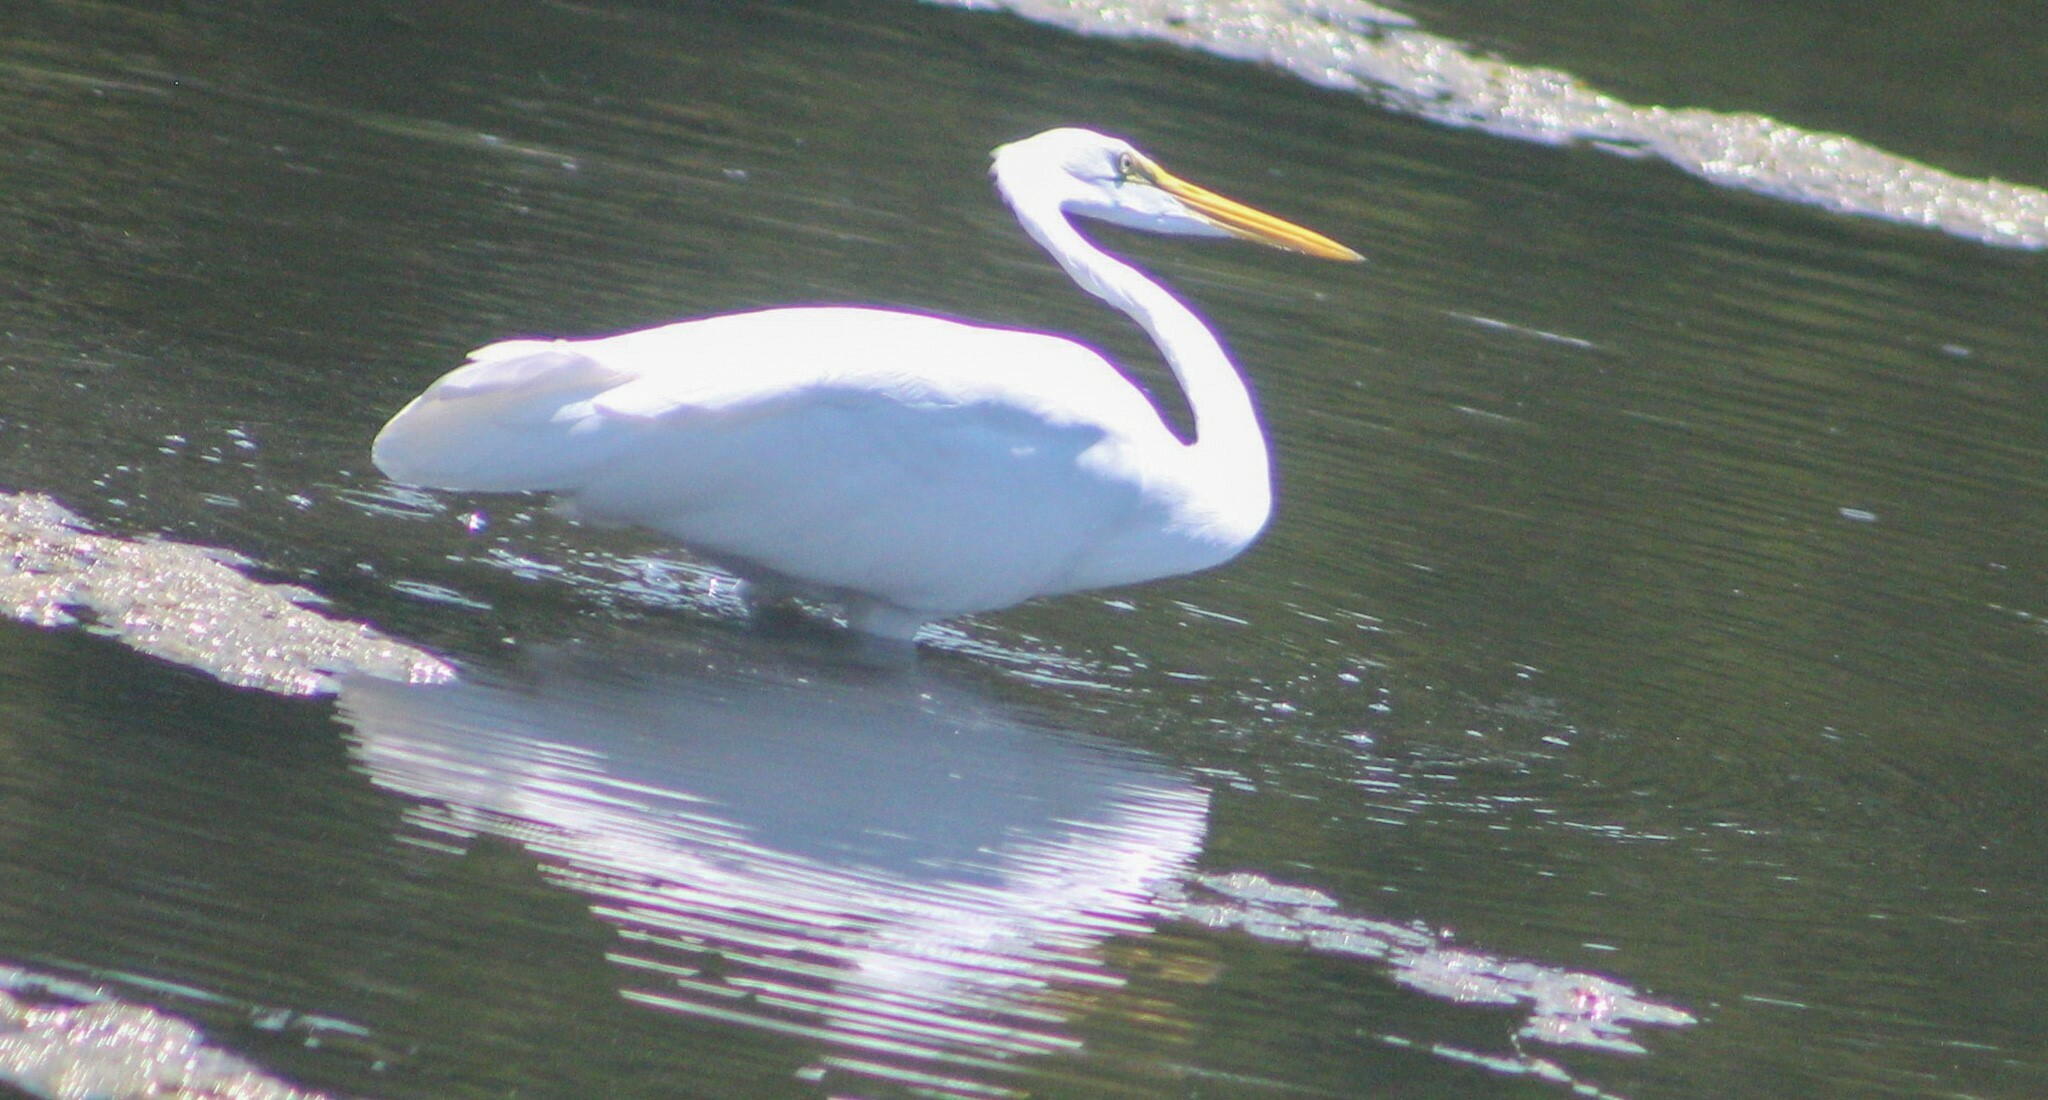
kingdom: Animalia
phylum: Chordata
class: Aves
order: Pelecaniformes
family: Ardeidae
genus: Ardea
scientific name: Ardea alba
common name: Great egret
